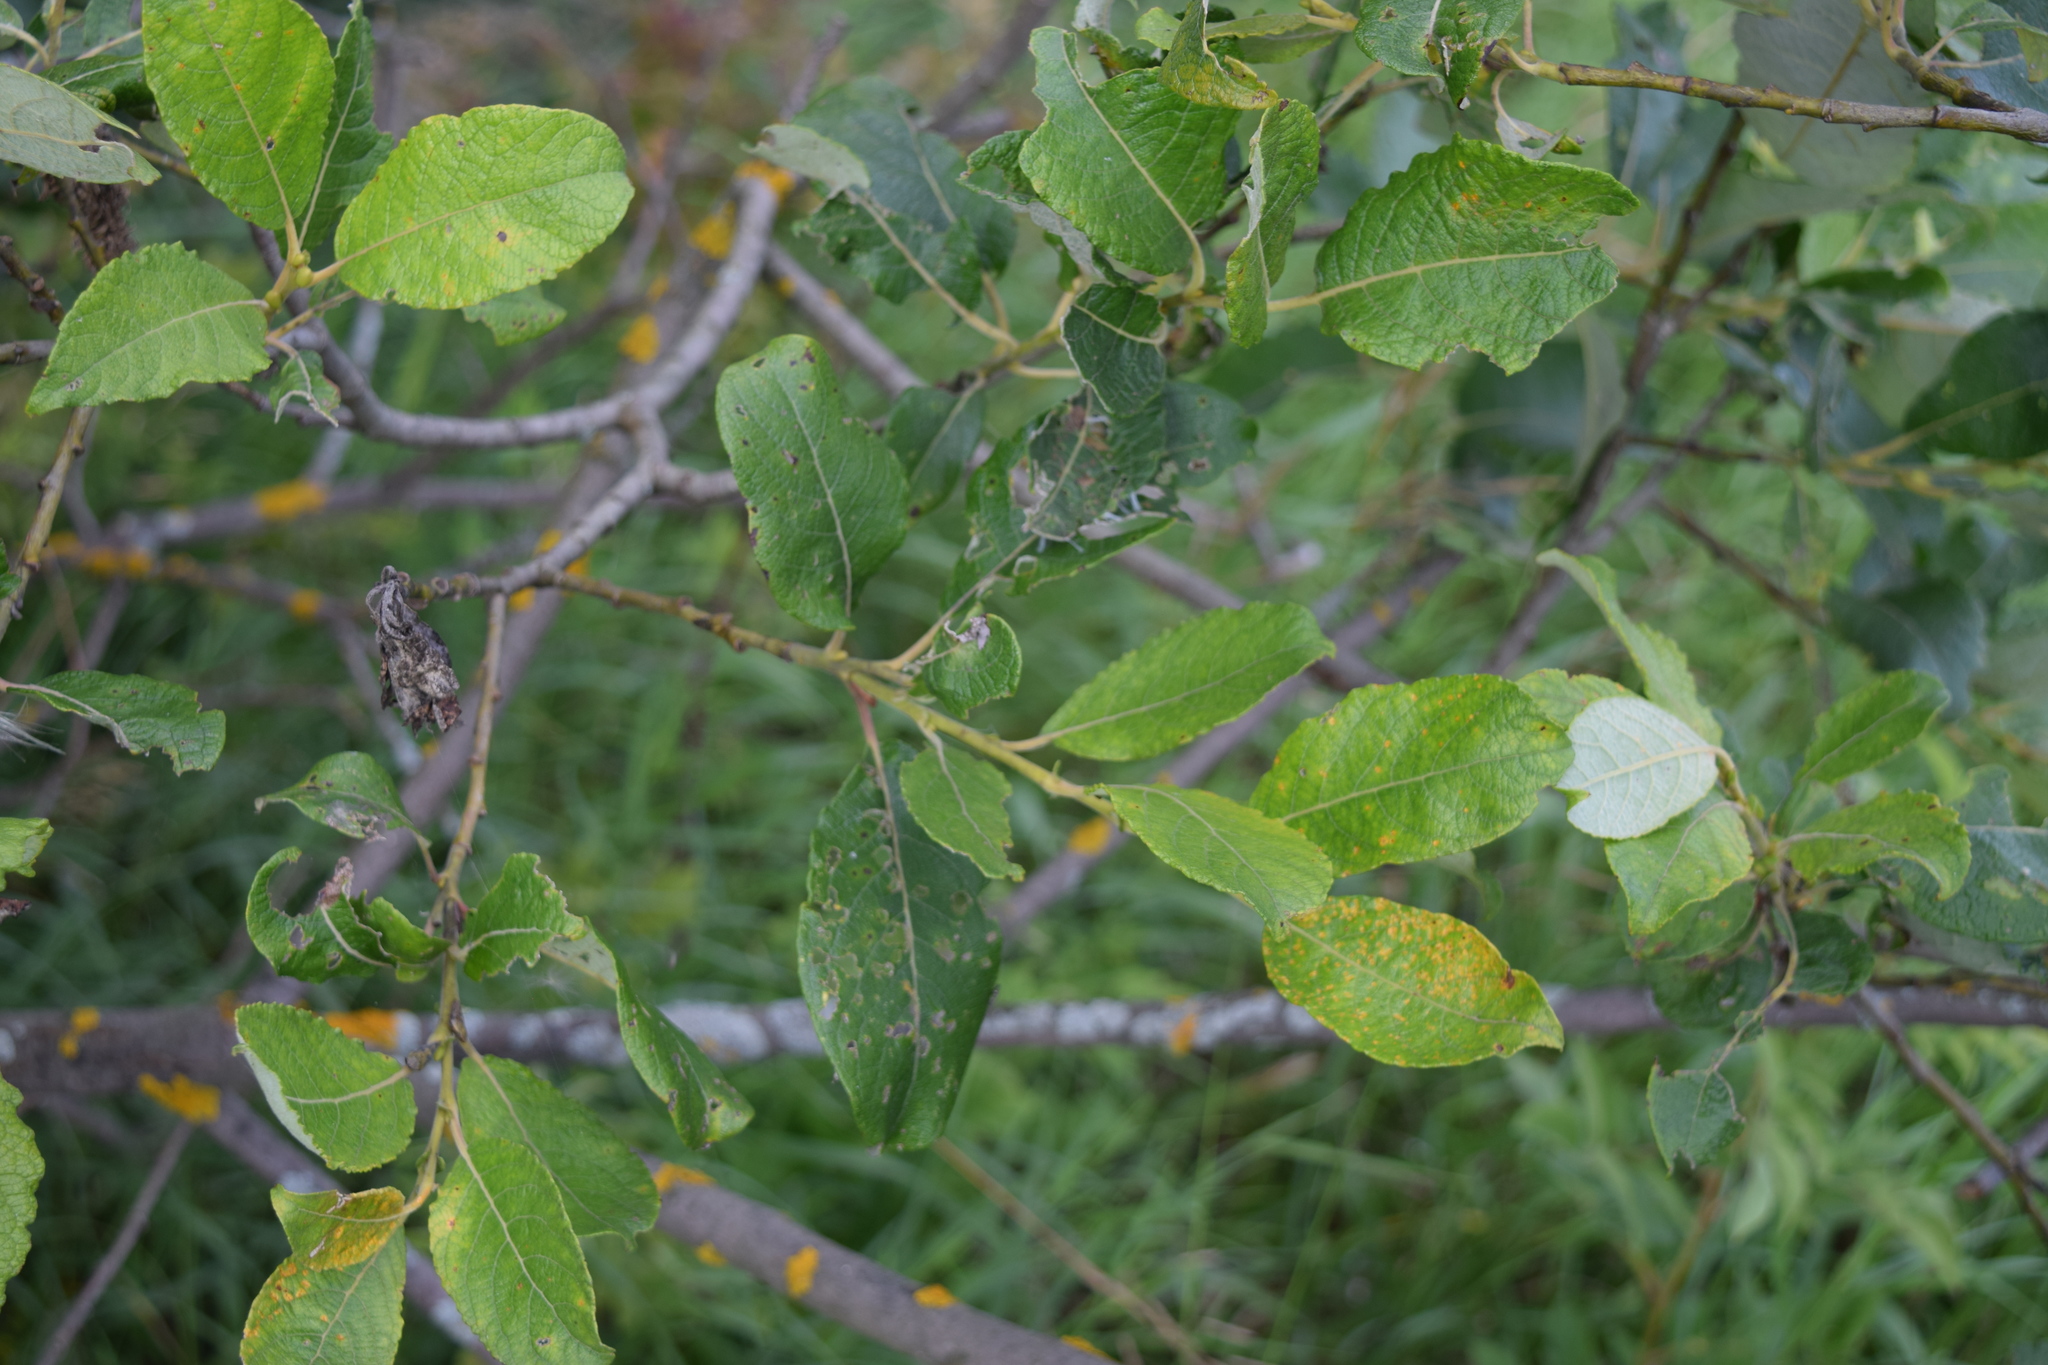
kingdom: Plantae
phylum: Tracheophyta
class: Magnoliopsida
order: Malpighiales
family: Salicaceae
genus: Salix
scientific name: Salix caprea
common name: Goat willow
